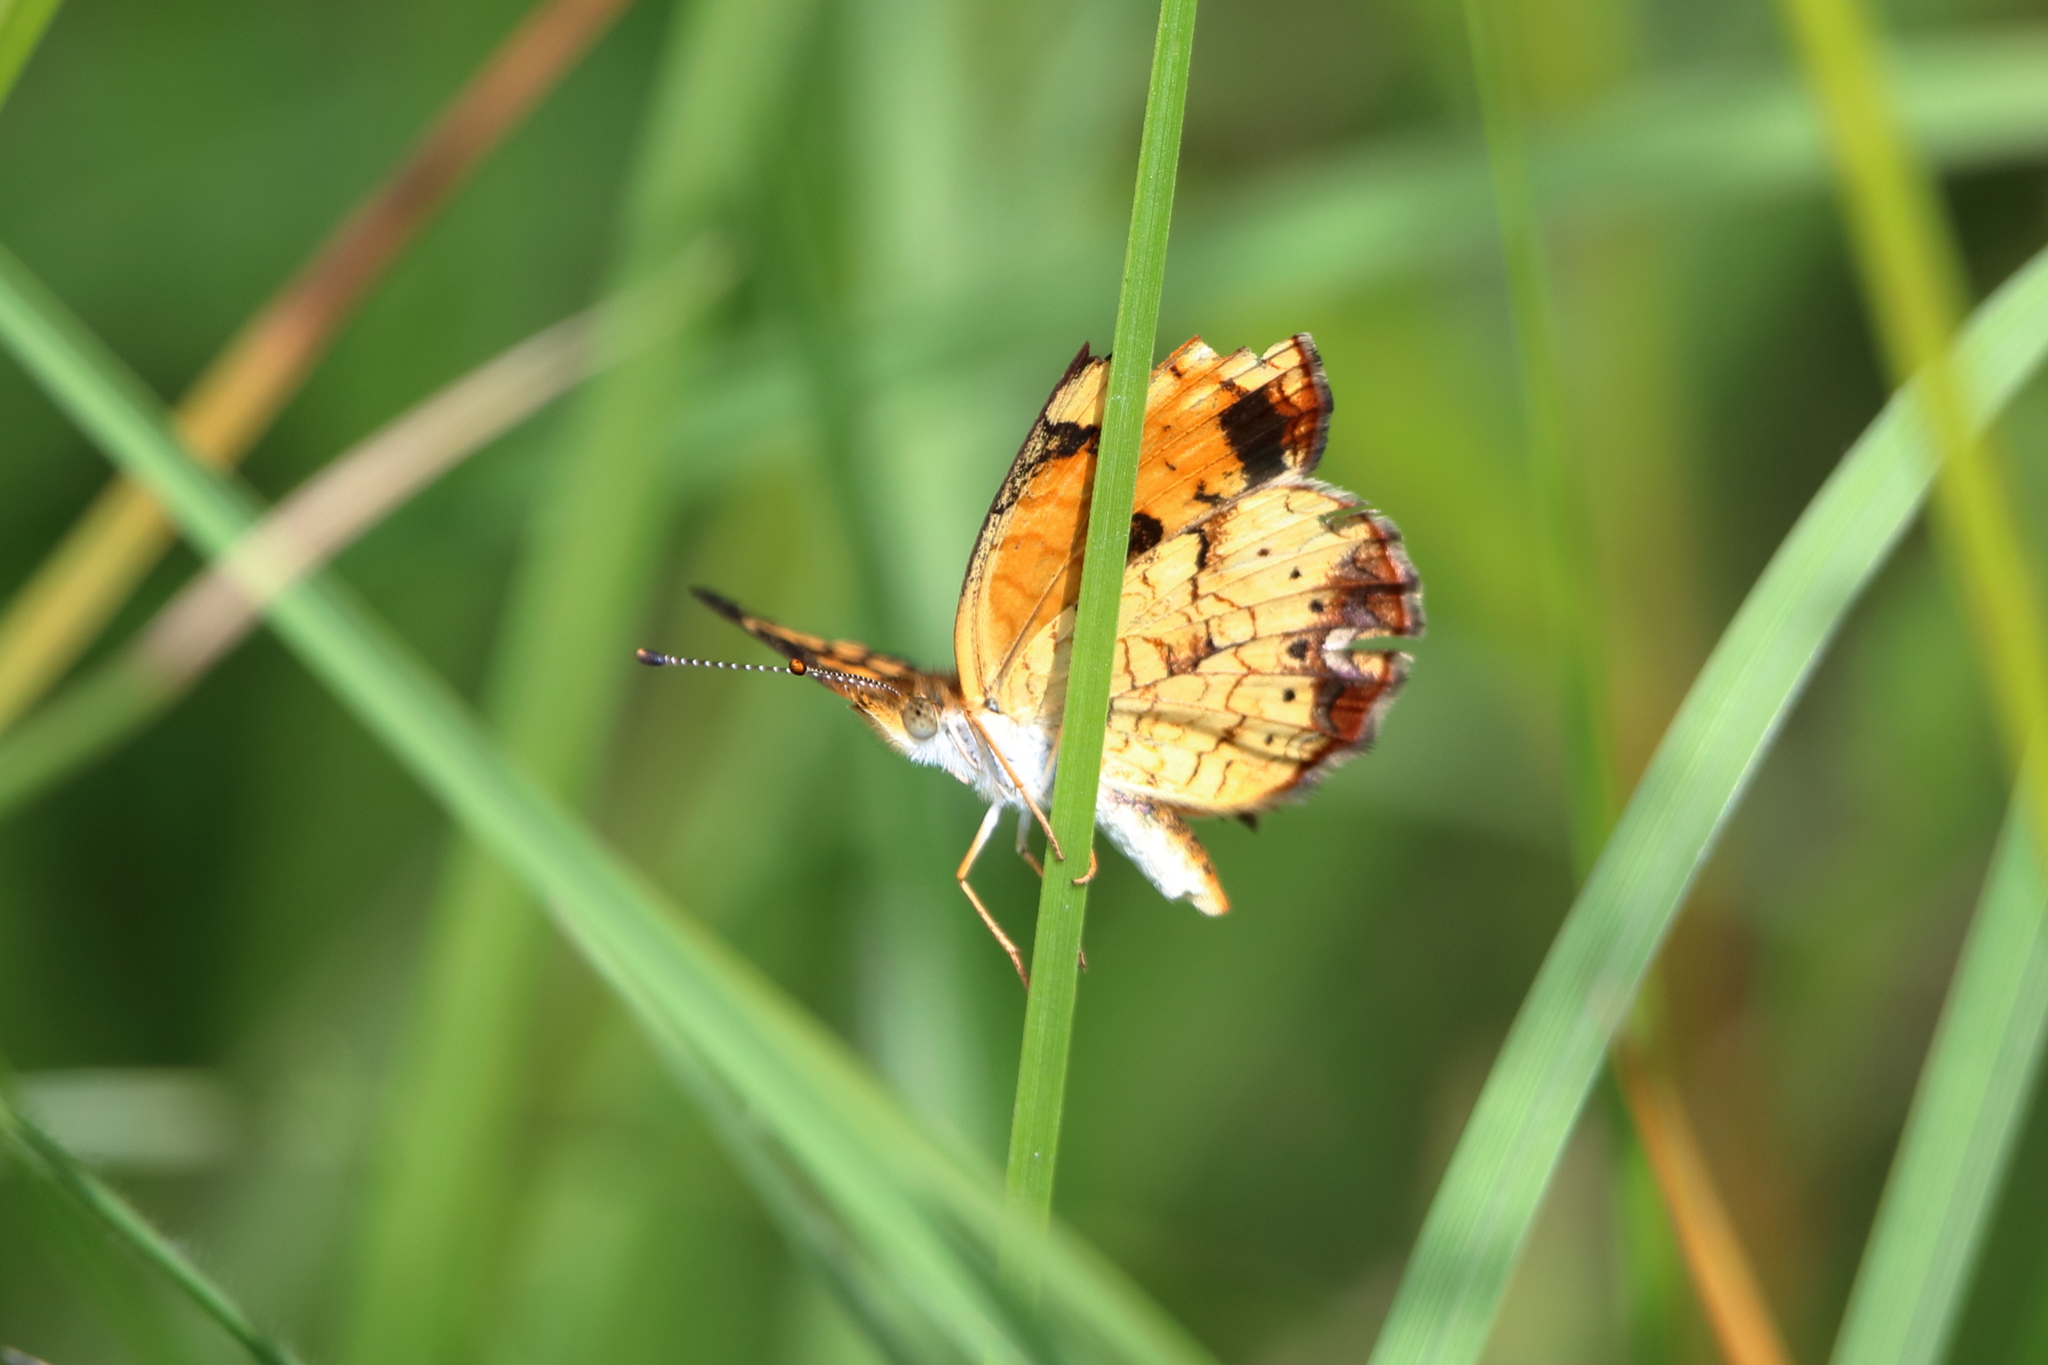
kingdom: Animalia
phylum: Arthropoda
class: Insecta
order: Lepidoptera
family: Nymphalidae
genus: Phyciodes
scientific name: Phyciodes tharos
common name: Pearl crescent
